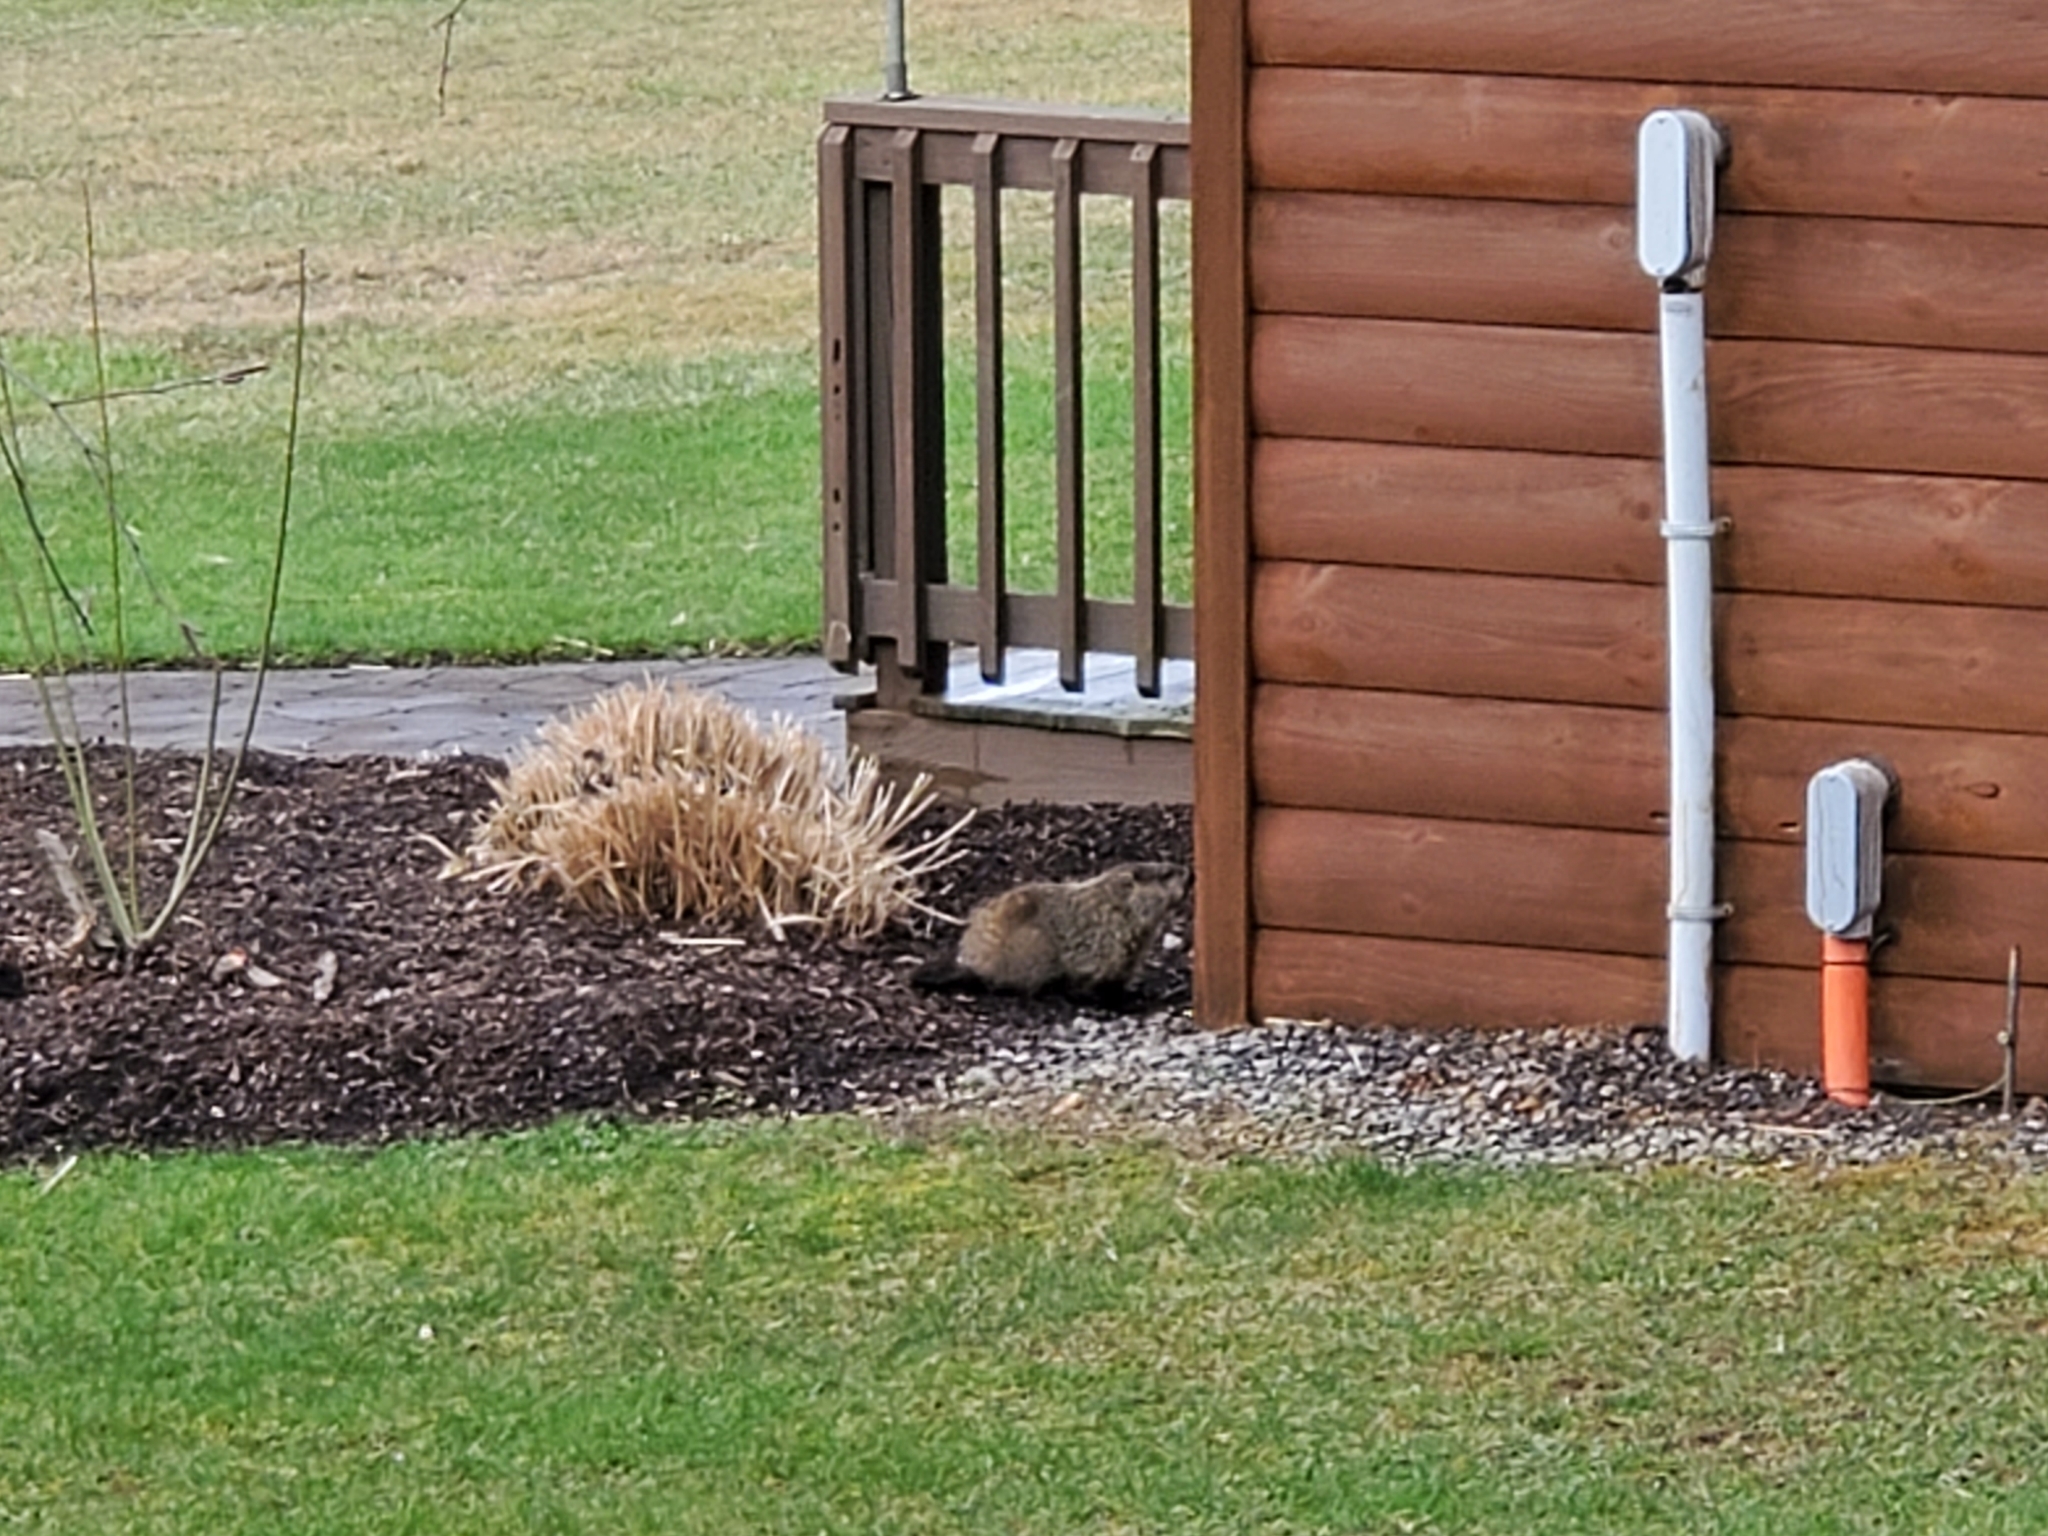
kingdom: Animalia
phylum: Chordata
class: Mammalia
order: Rodentia
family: Sciuridae
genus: Marmota
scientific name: Marmota monax
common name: Groundhog
